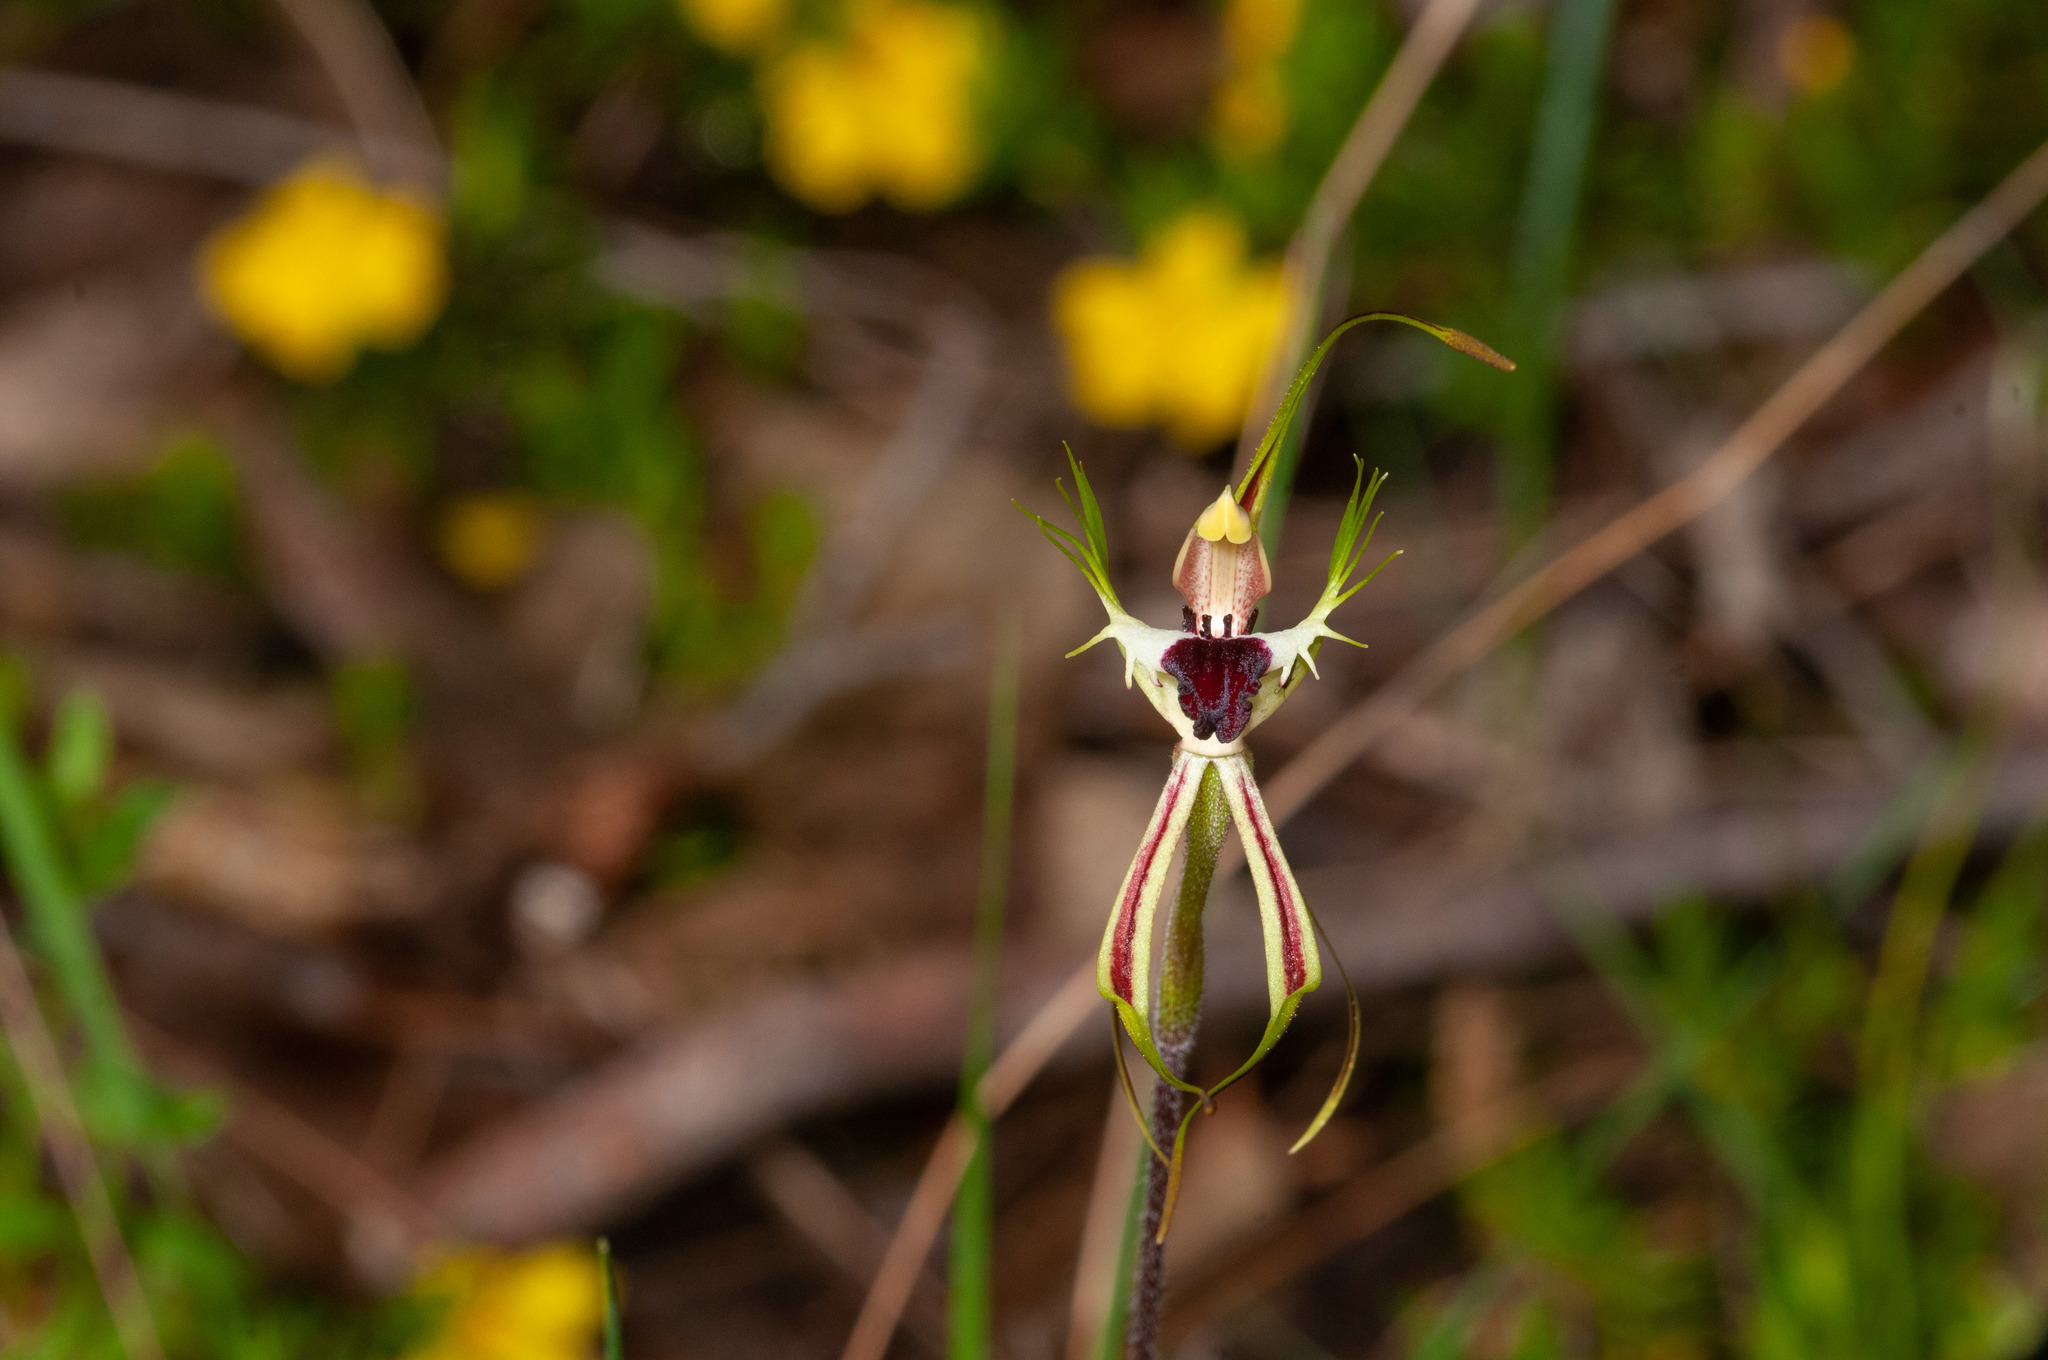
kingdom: Plantae
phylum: Tracheophyta
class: Liliopsida
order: Asparagales
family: Orchidaceae
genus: Caladenia
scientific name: Caladenia tentaculata
